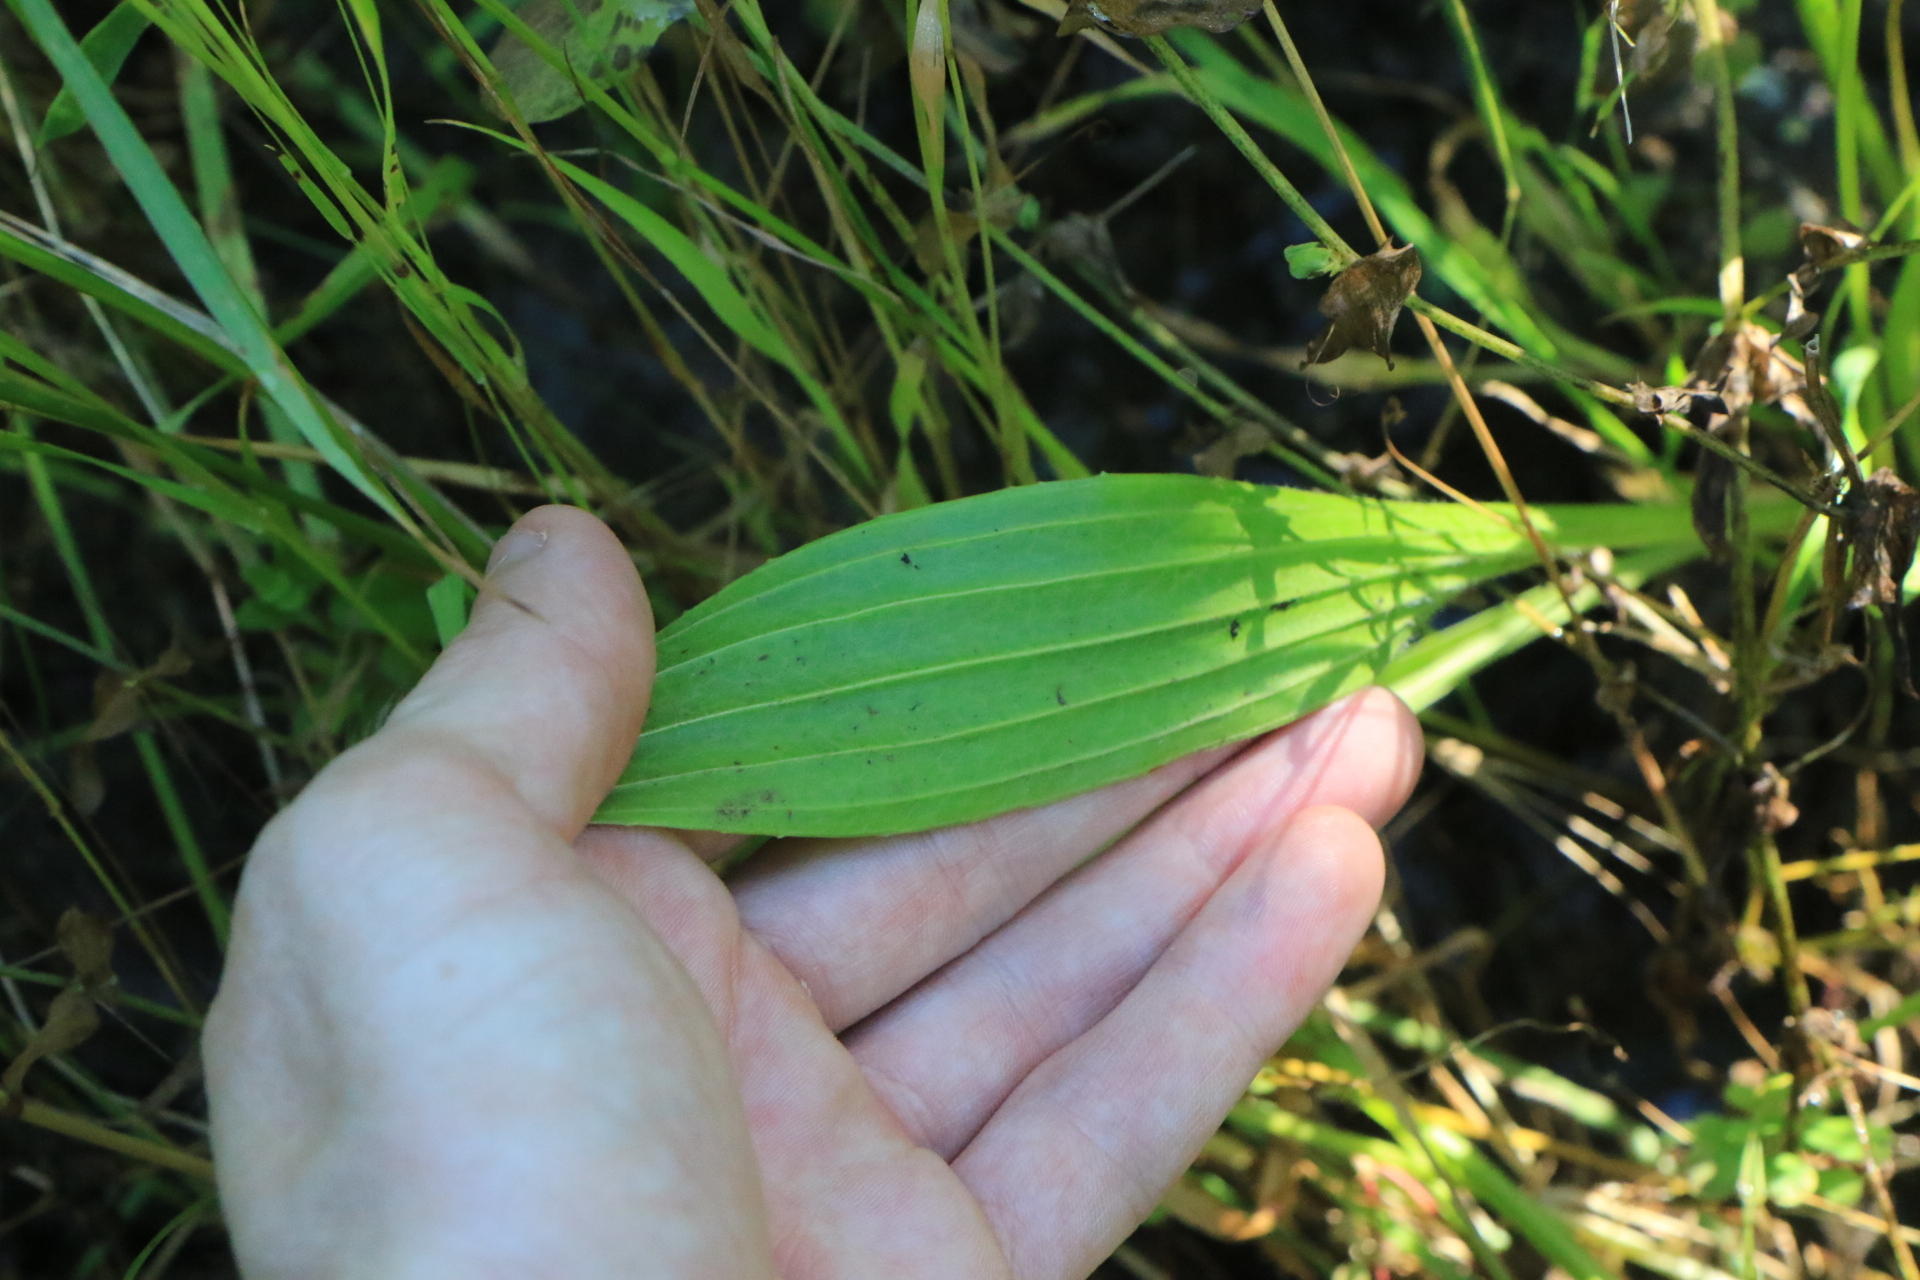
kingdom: Plantae
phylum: Tracheophyta
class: Magnoliopsida
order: Lamiales
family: Plantaginaceae
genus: Plantago
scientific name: Plantago lanceolata
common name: Ribwort plantain
